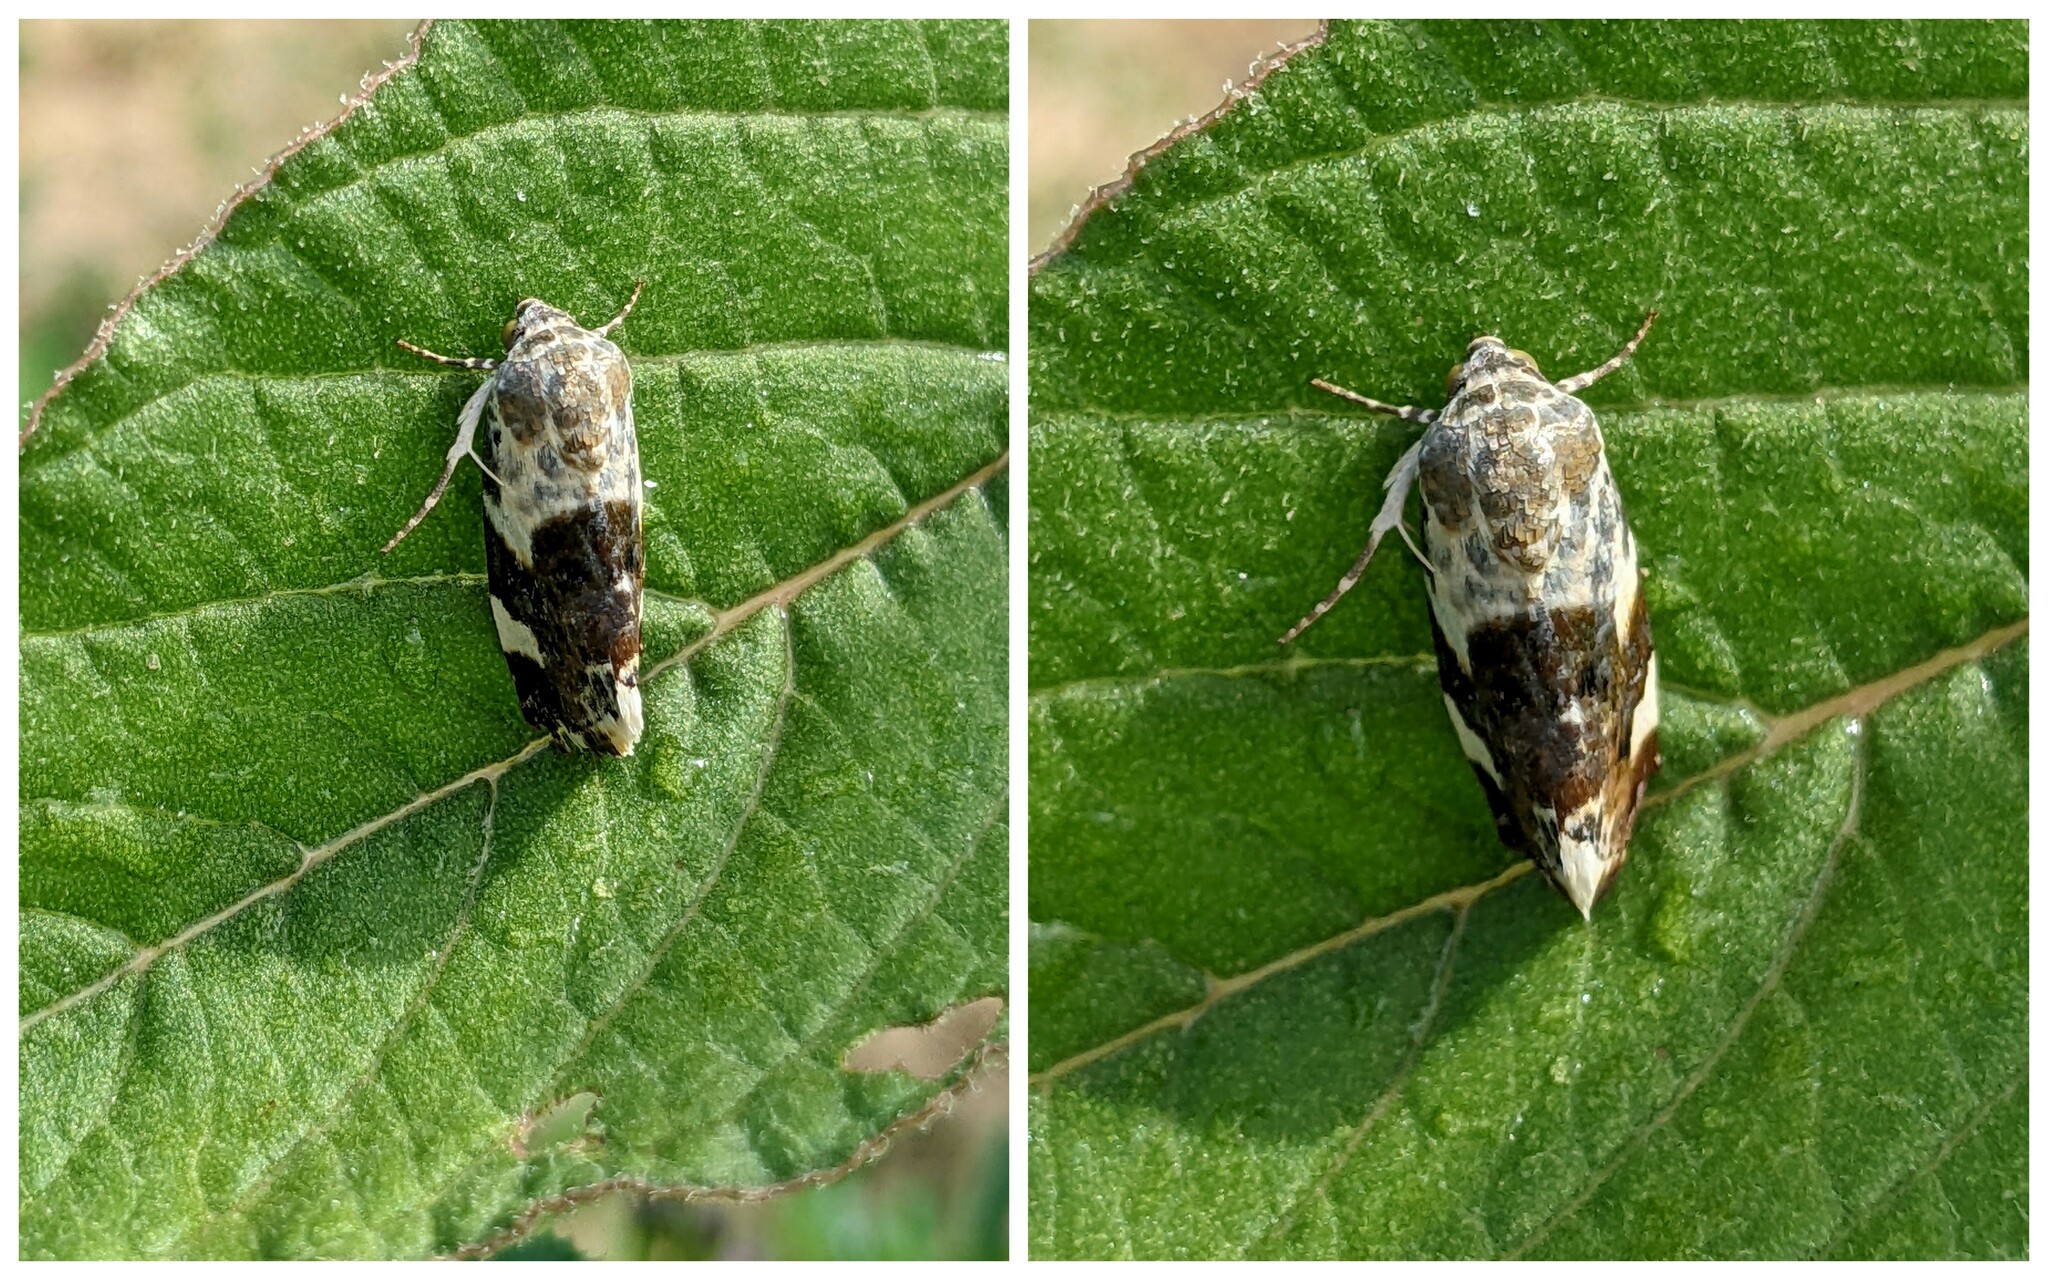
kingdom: Animalia
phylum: Arthropoda
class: Insecta
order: Lepidoptera
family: Noctuidae
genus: Acontia
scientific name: Acontia lucida
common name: Pale shoulder
